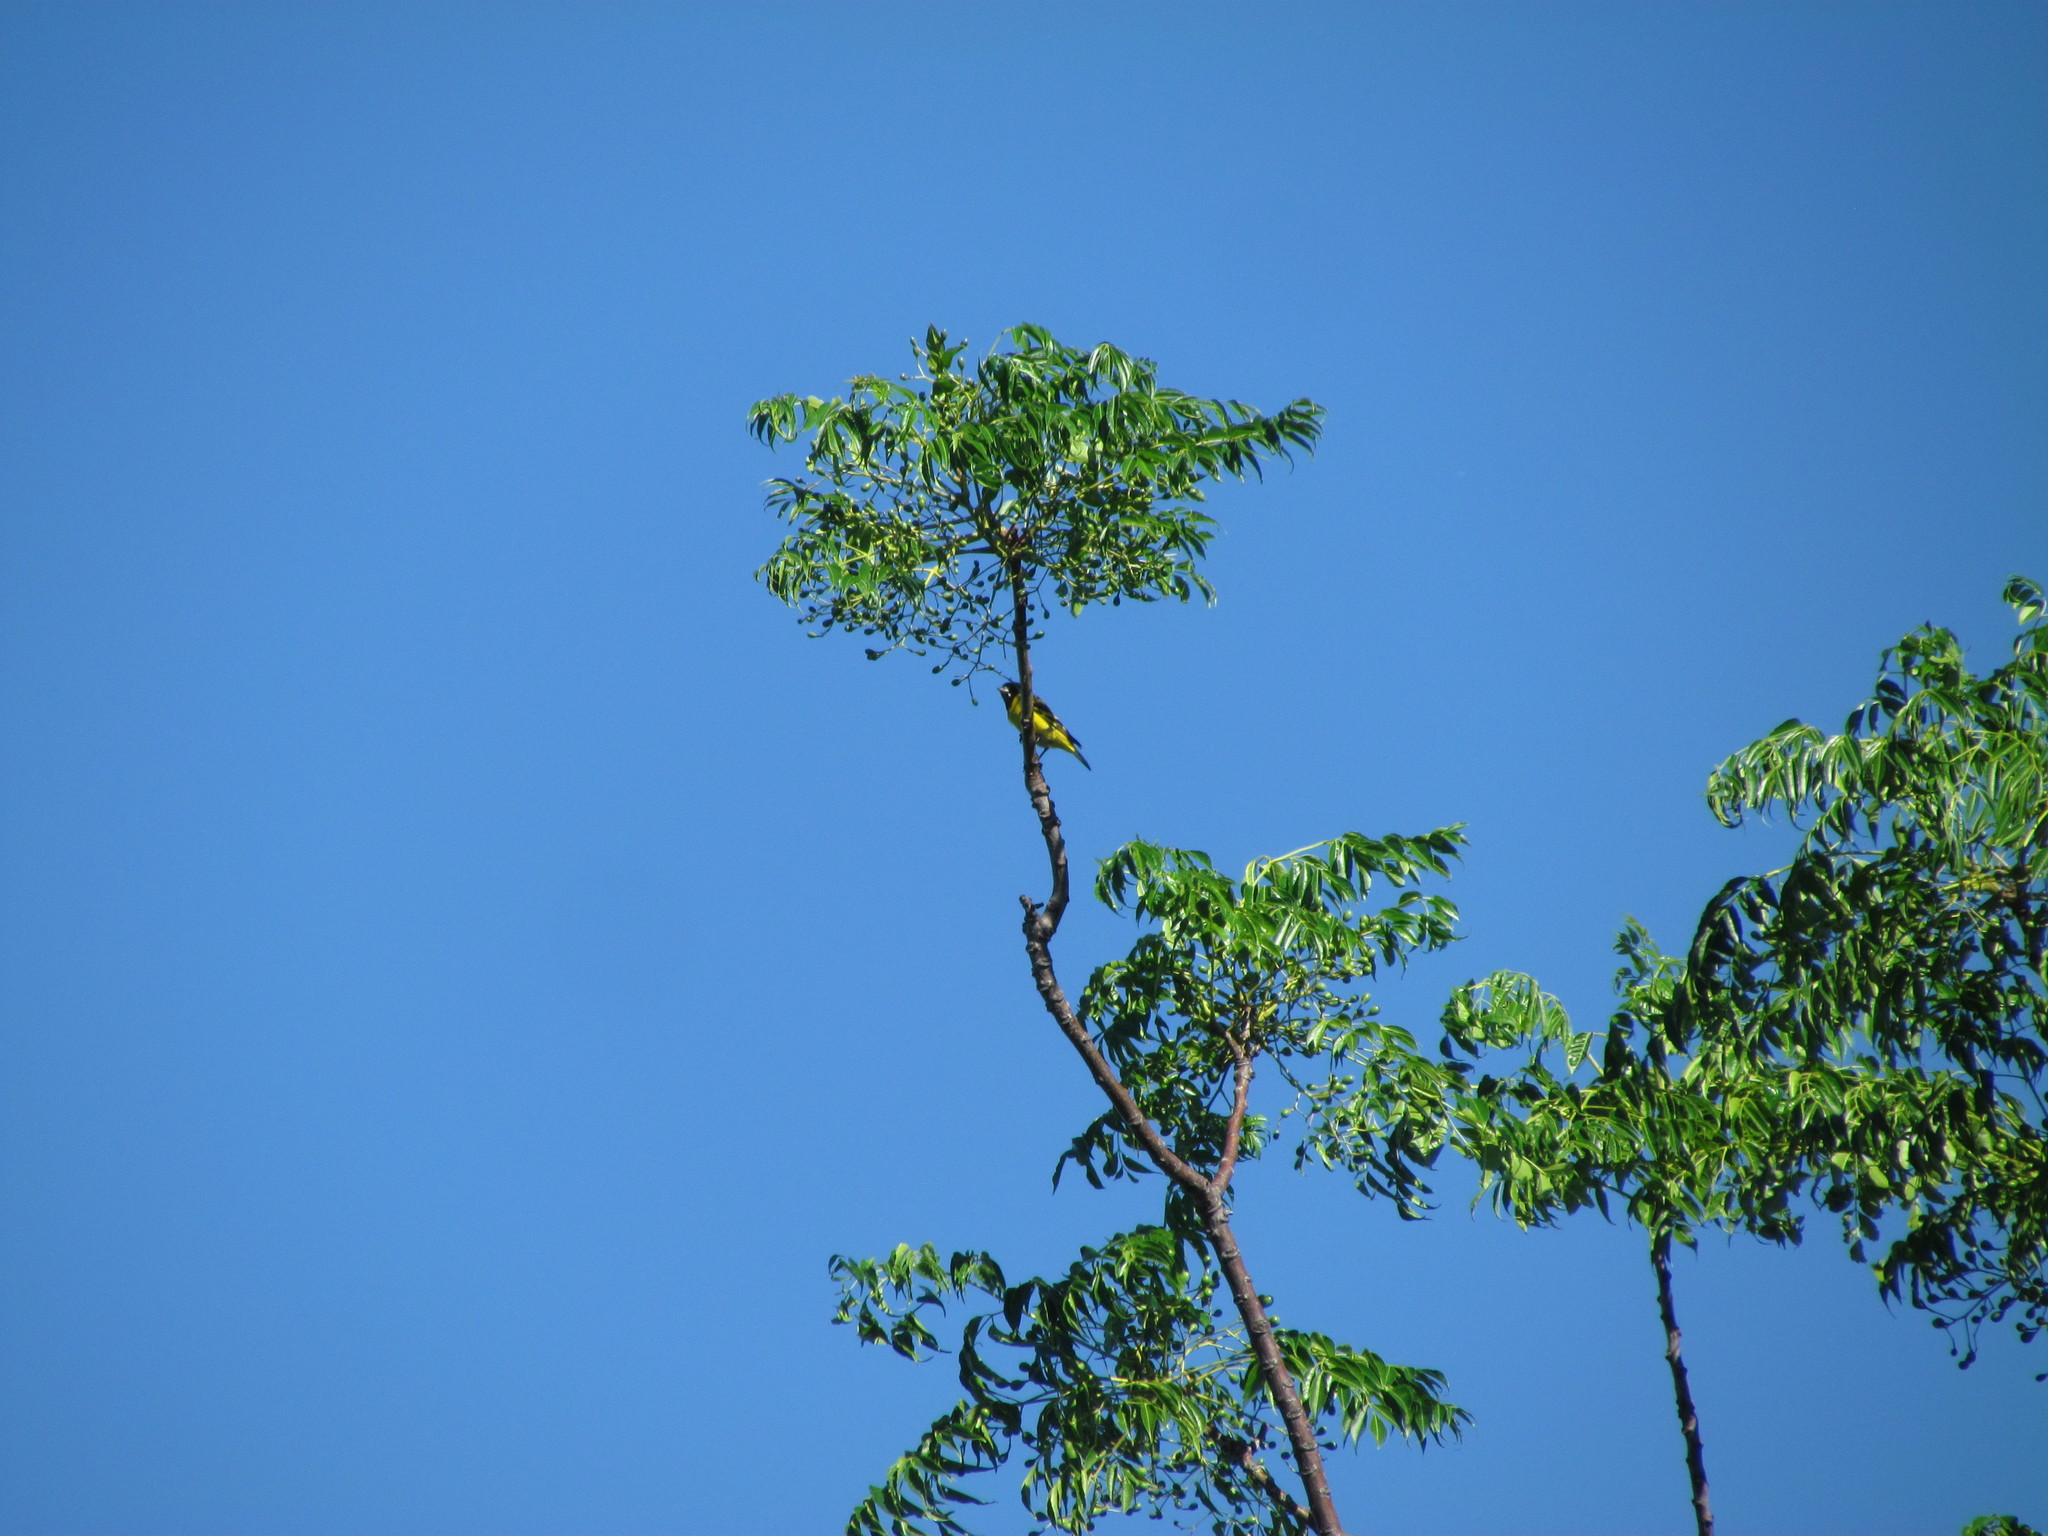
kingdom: Animalia
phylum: Chordata
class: Aves
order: Passeriformes
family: Fringillidae
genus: Spinus
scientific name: Spinus magellanicus
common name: Hooded siskin
